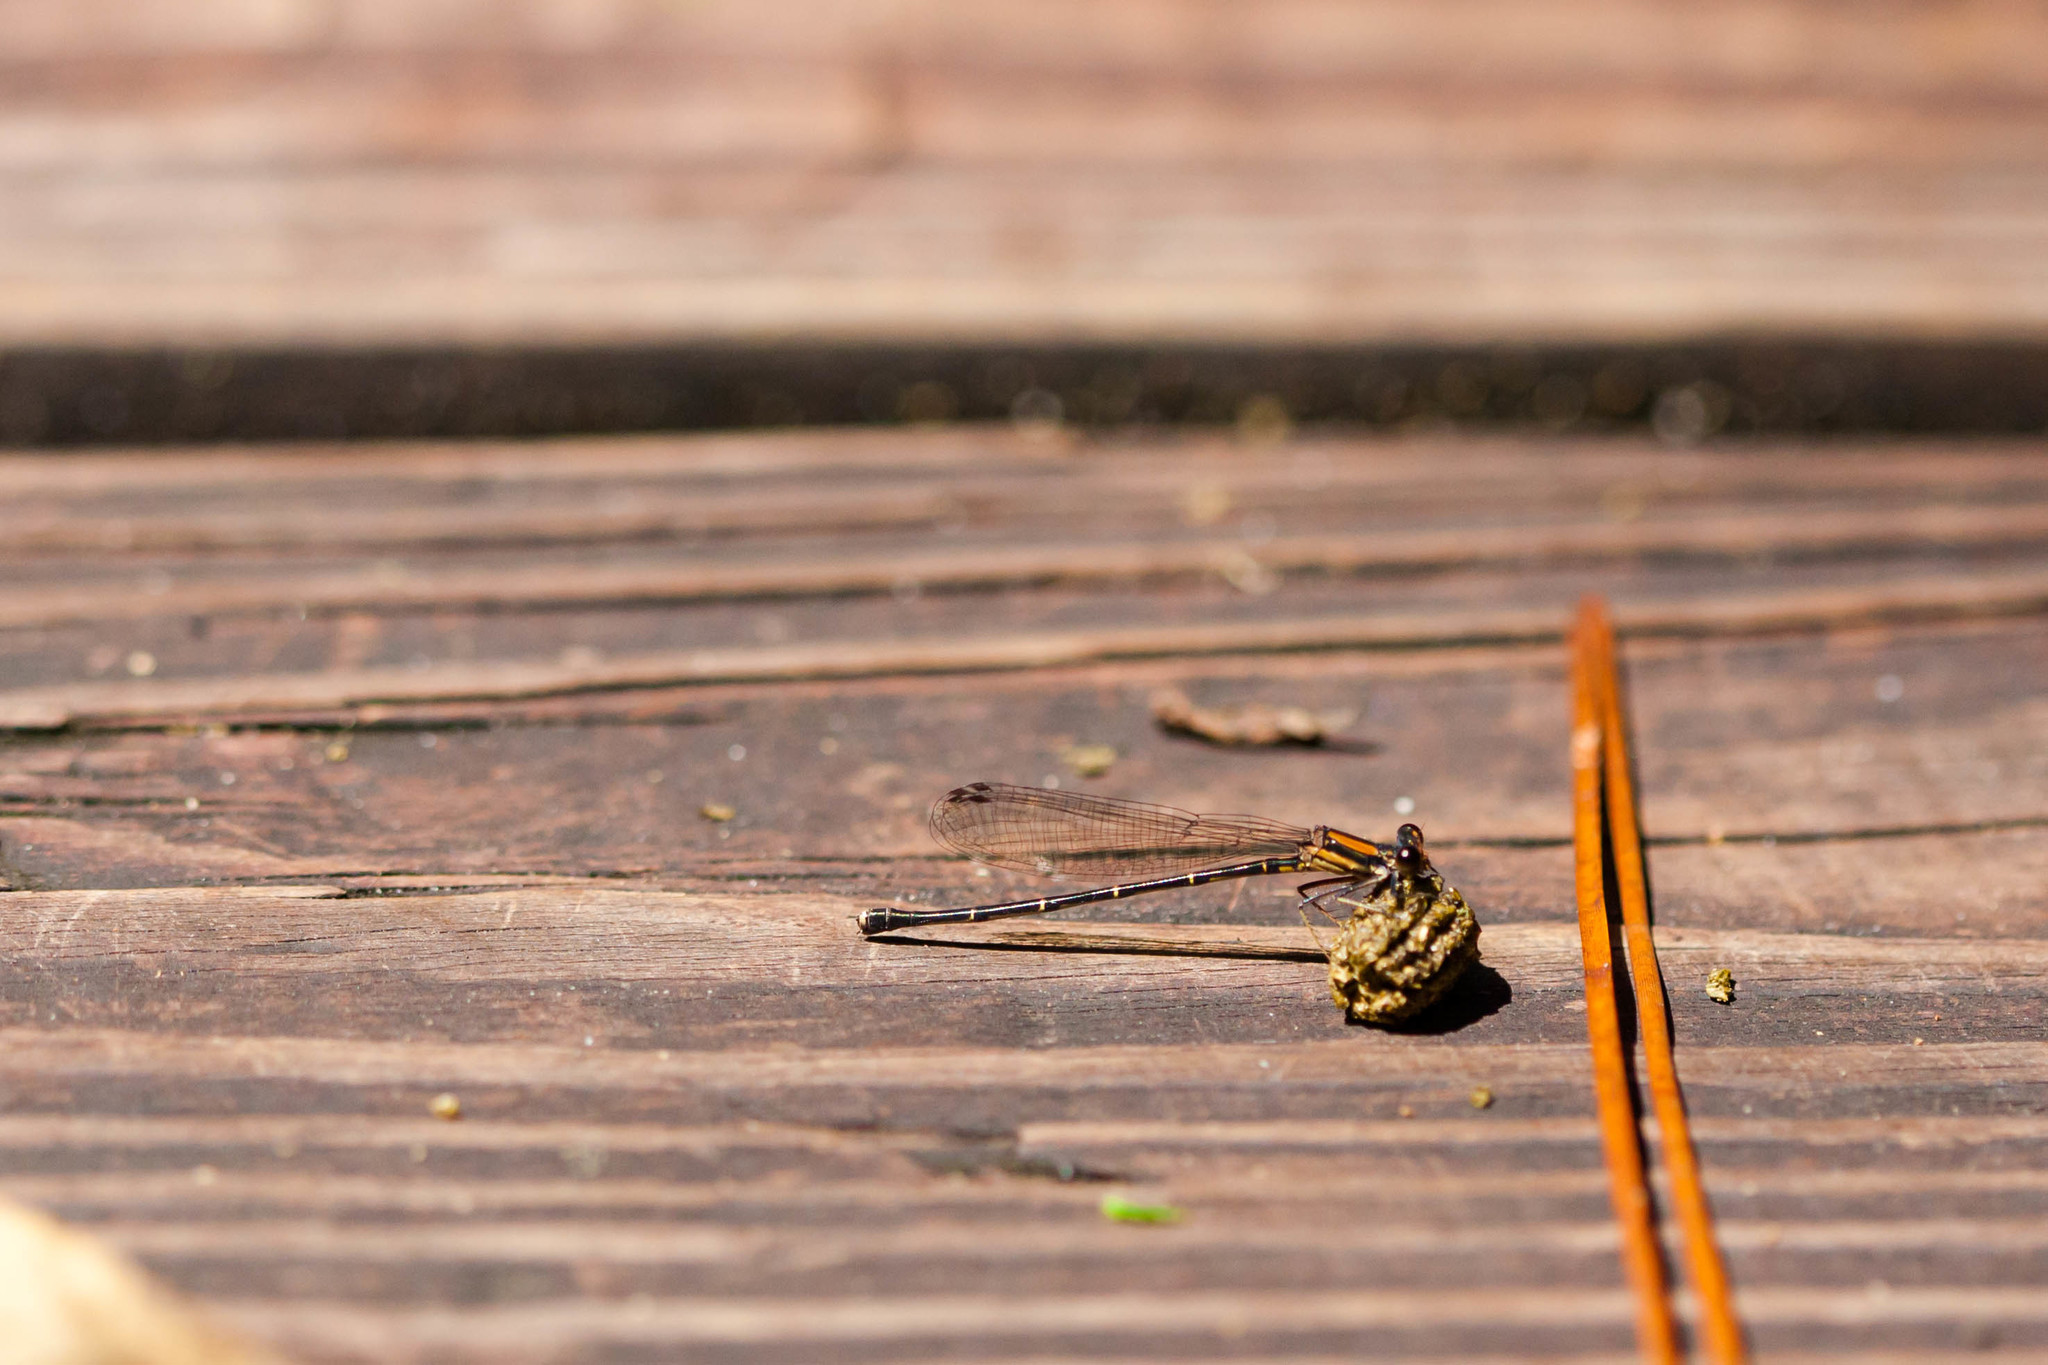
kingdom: Animalia
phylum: Arthropoda
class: Insecta
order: Odonata
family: Coenagrionidae
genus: Argia
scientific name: Argia tibialis
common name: Blue-tipped dancer
